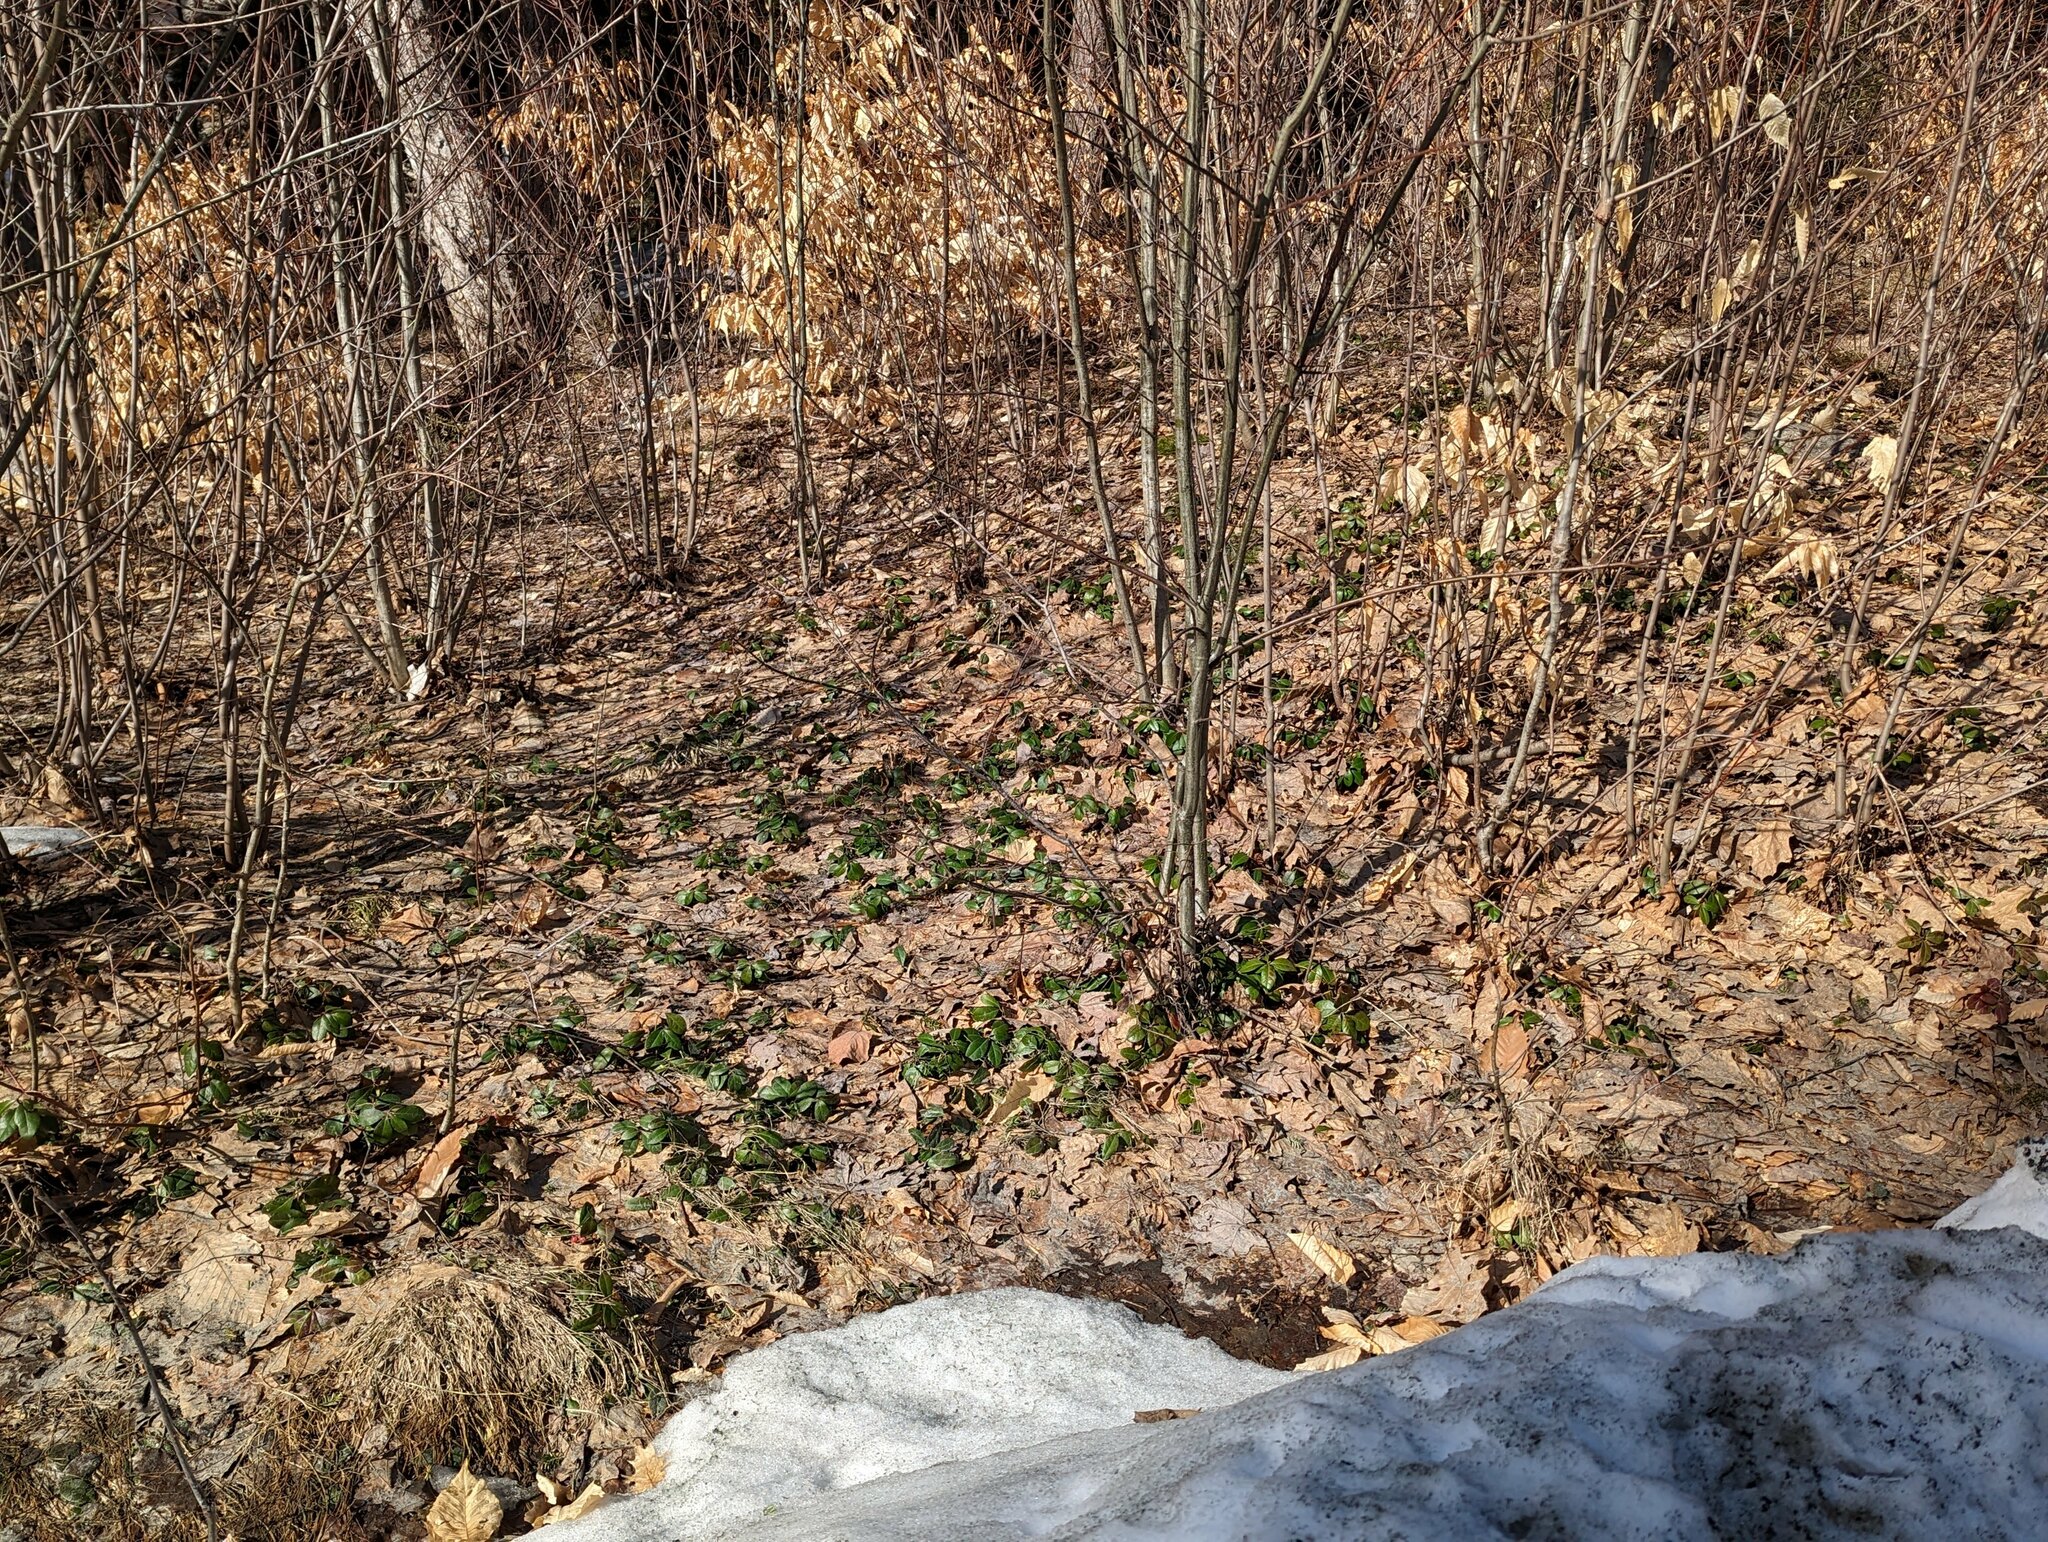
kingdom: Plantae
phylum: Tracheophyta
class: Magnoliopsida
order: Ericales
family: Ericaceae
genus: Gaultheria
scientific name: Gaultheria procumbens
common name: Checkerberry
